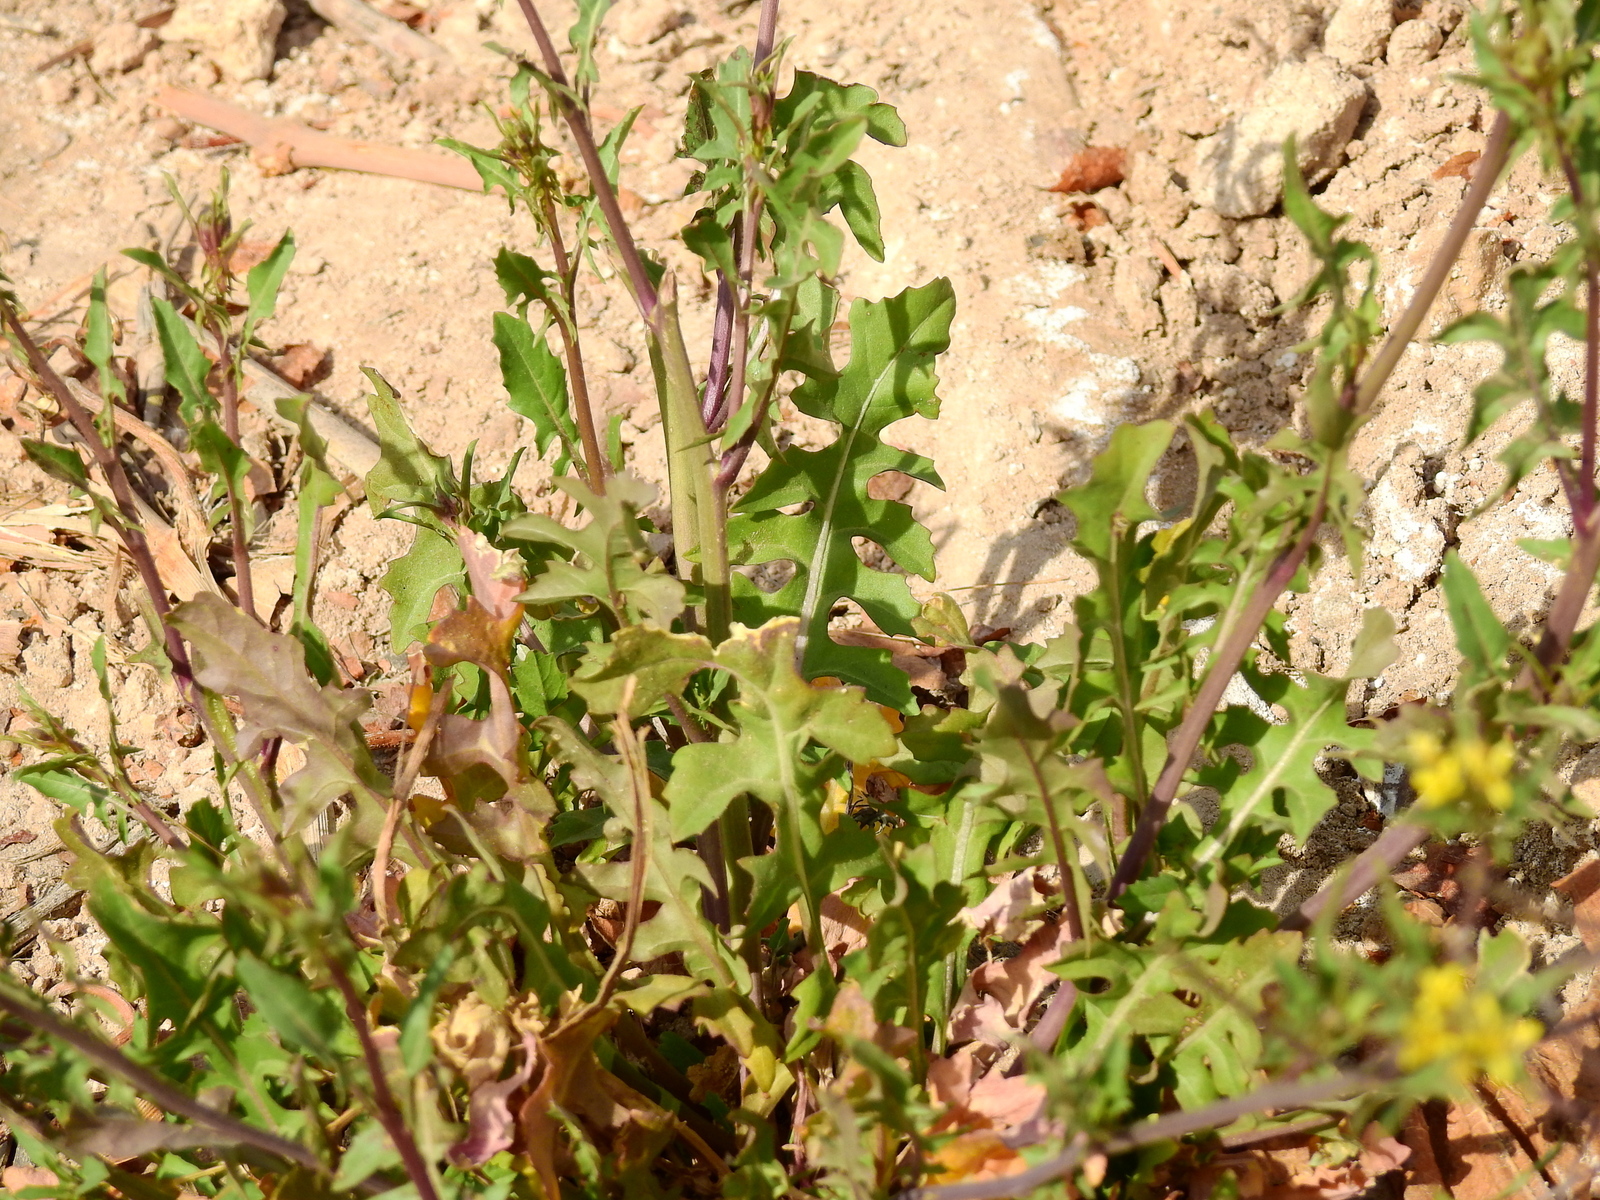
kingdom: Plantae
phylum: Tracheophyta
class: Magnoliopsida
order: Brassicales
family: Brassicaceae
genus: Sisymbrium
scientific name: Sisymbrium irio
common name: London rocket
